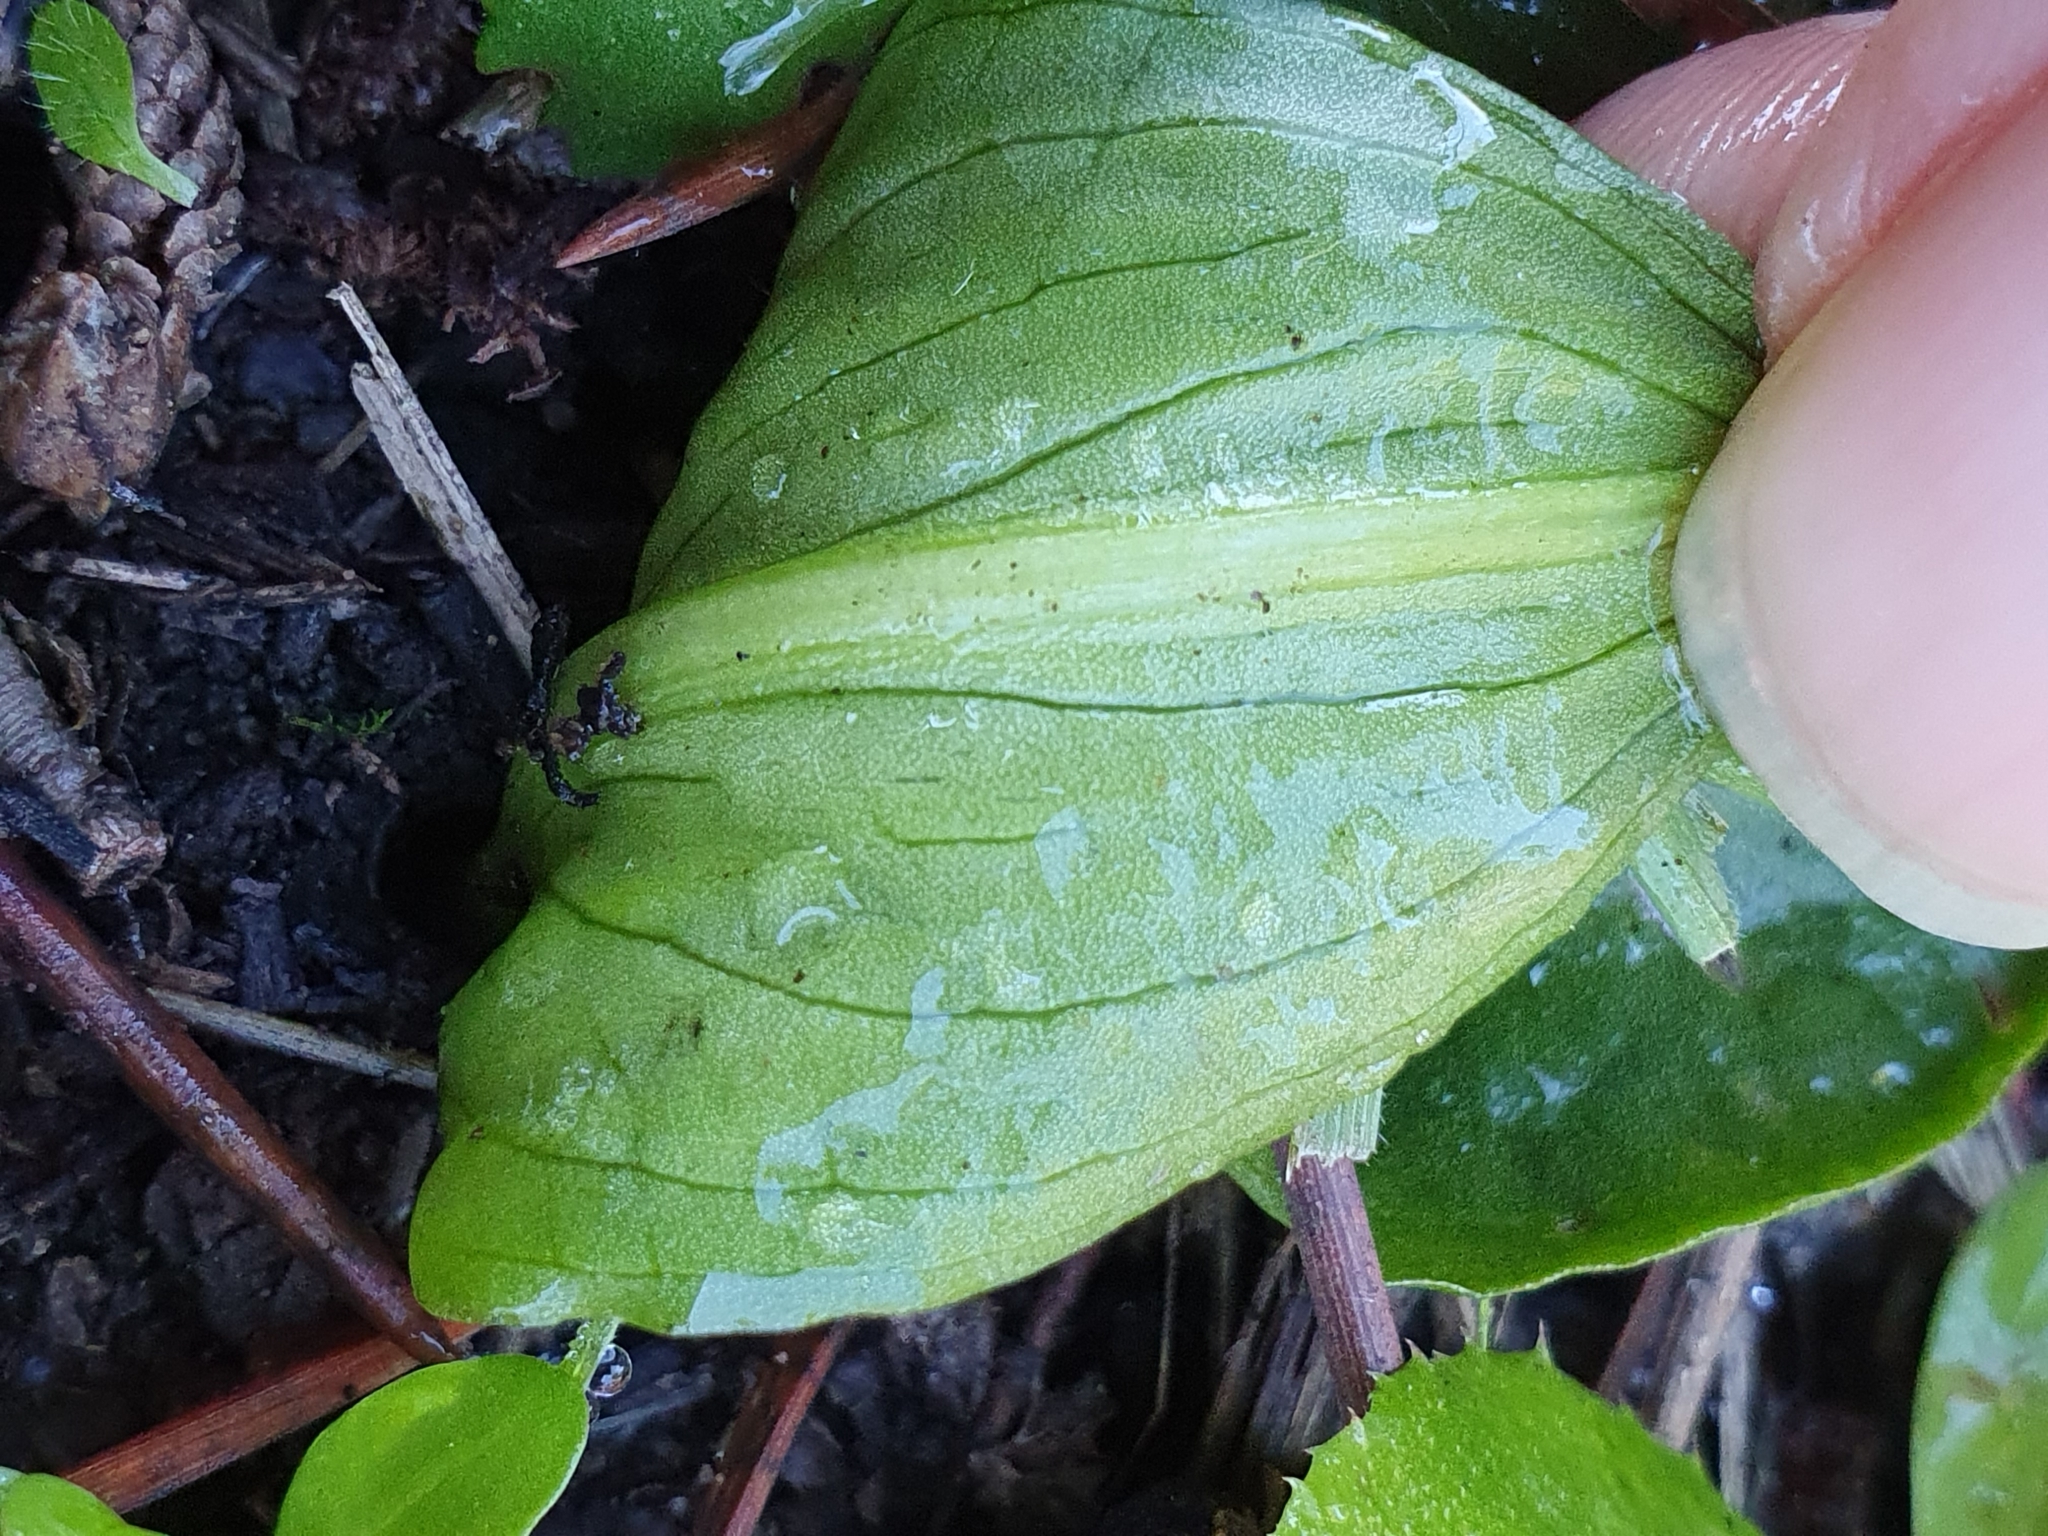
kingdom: Plantae
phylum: Tracheophyta
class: Liliopsida
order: Alismatales
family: Araceae
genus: Ambrosina
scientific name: Ambrosina bassii
